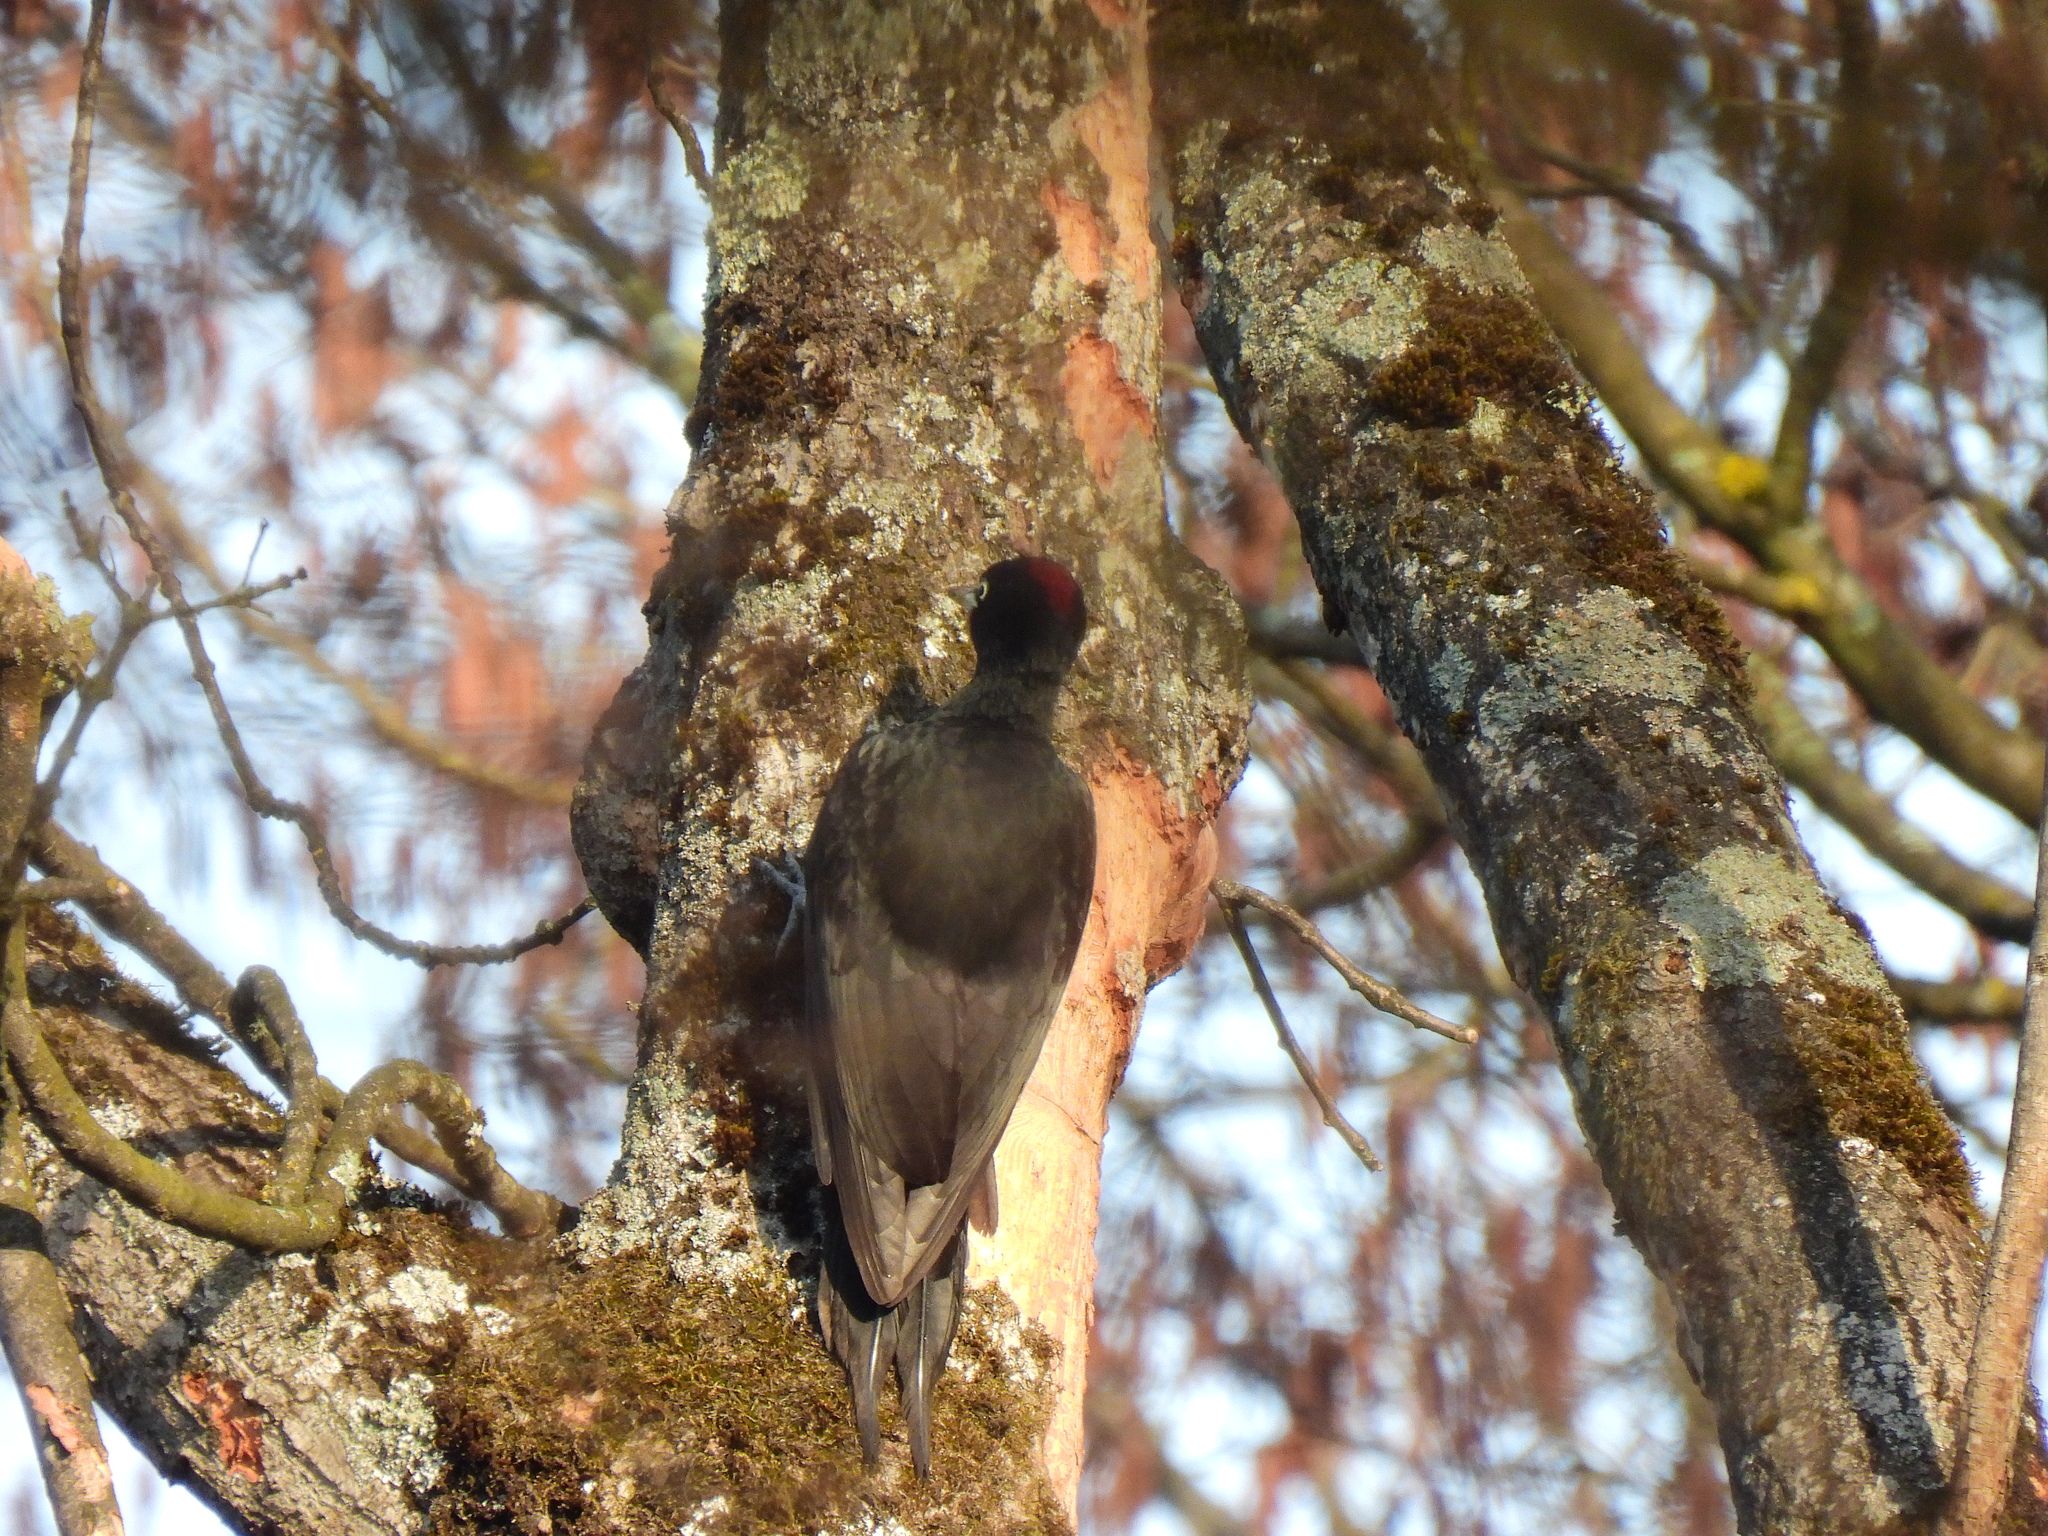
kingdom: Animalia
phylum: Chordata
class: Aves
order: Piciformes
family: Picidae
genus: Dryocopus
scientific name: Dryocopus martius
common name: Black woodpecker
